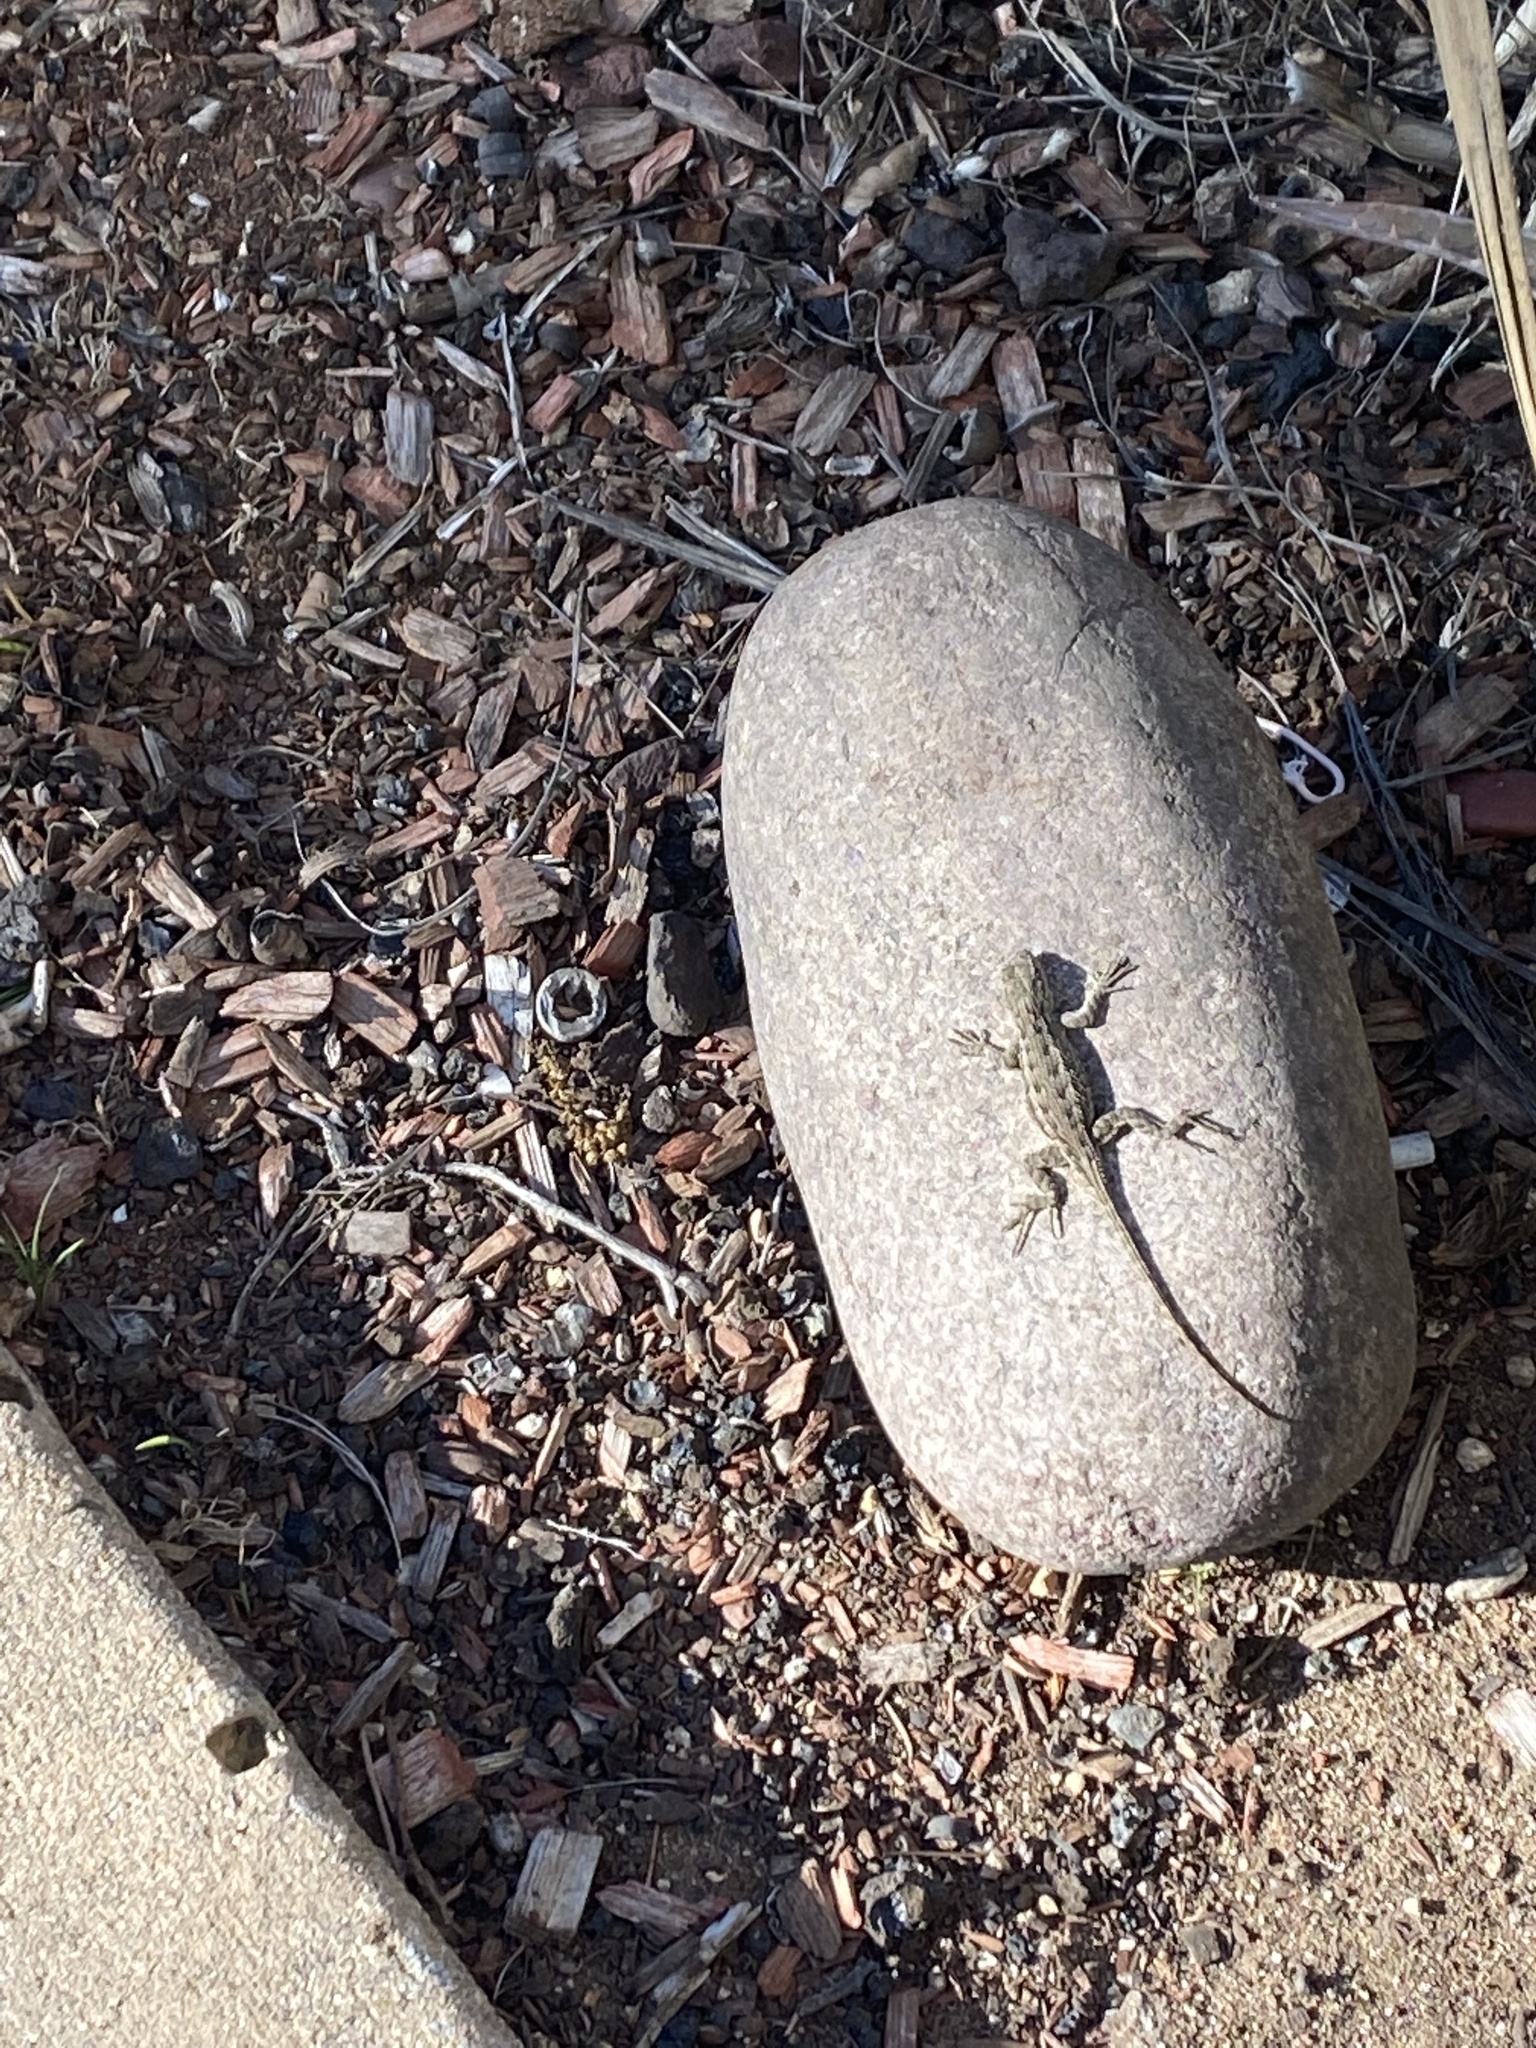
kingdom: Animalia
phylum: Chordata
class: Squamata
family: Phrynosomatidae
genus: Sceloporus
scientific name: Sceloporus occidentalis
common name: Western fence lizard
